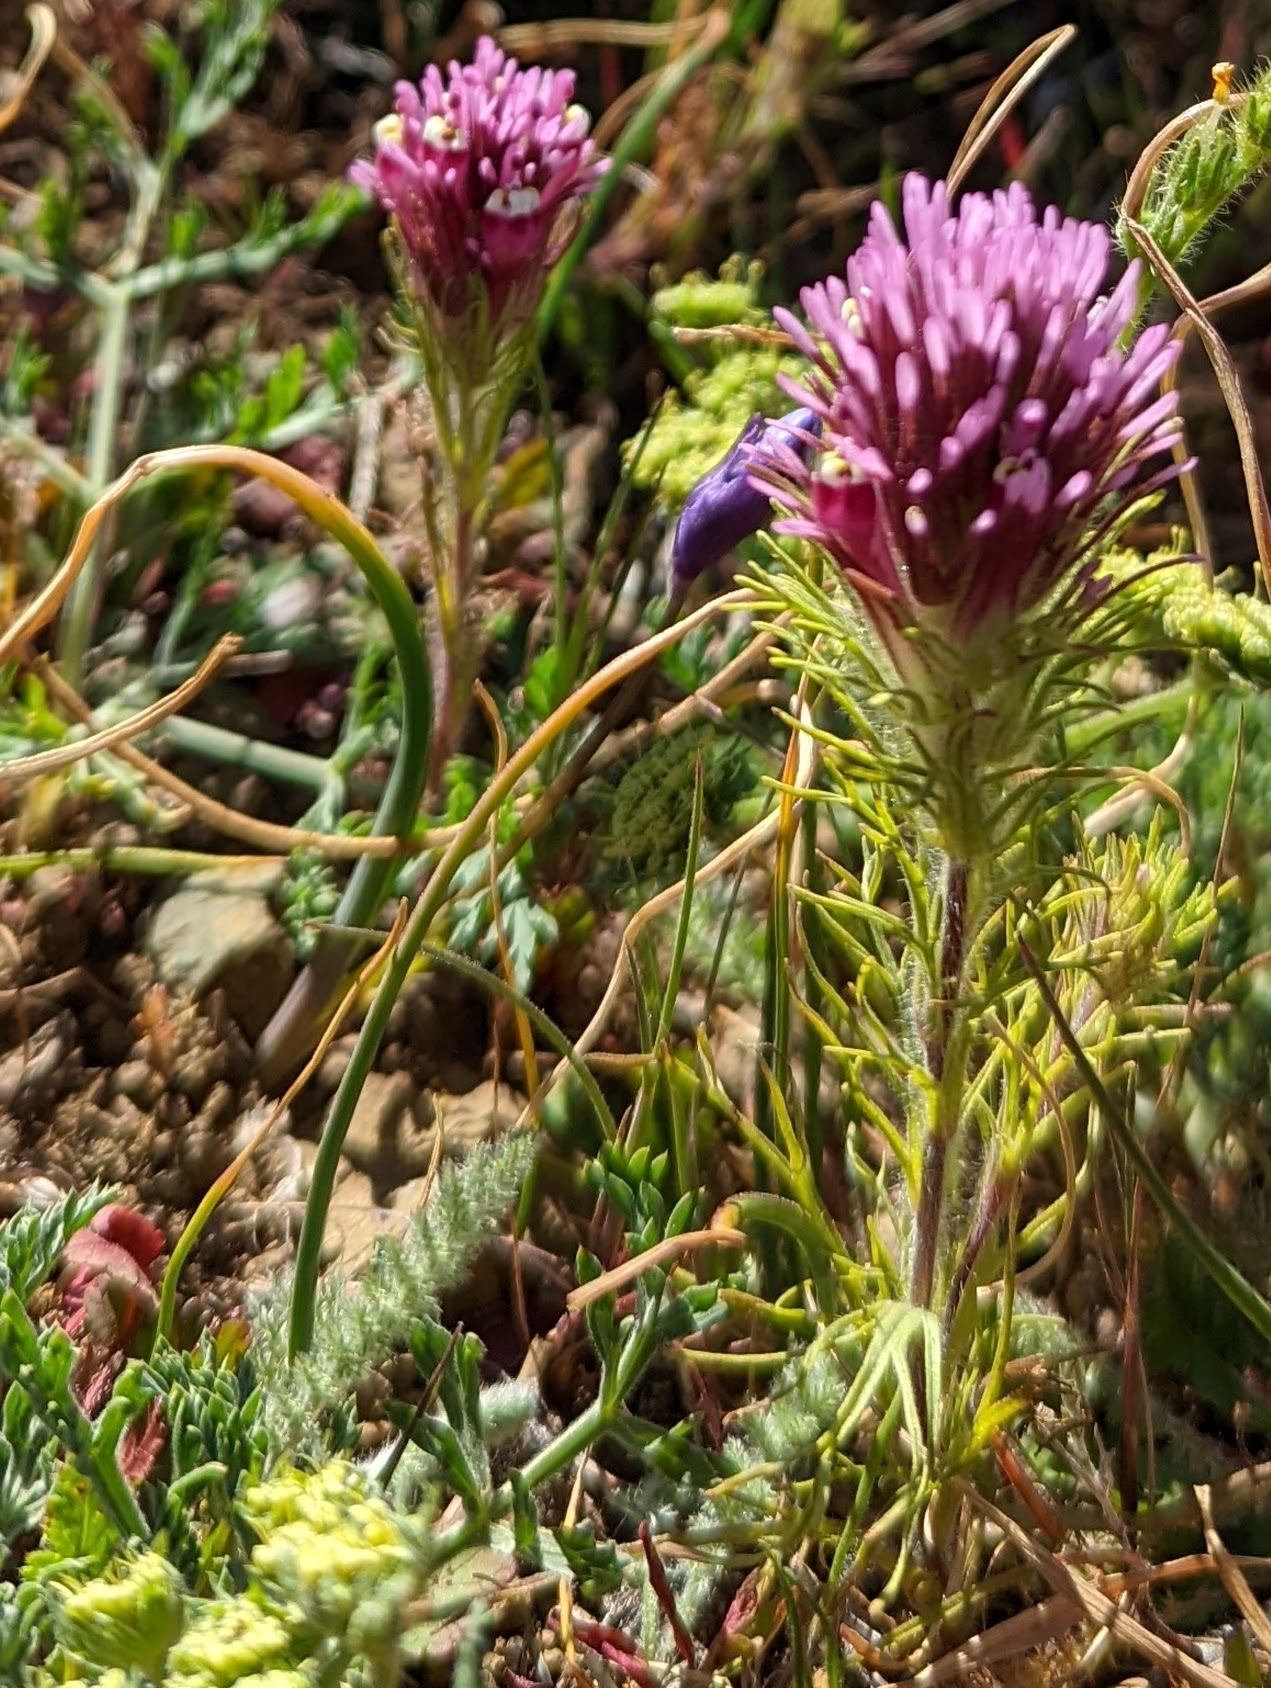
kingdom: Plantae
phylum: Tracheophyta
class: Magnoliopsida
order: Lamiales
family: Orobanchaceae
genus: Castilleja
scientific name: Castilleja exserta
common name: Purple owl-clover
